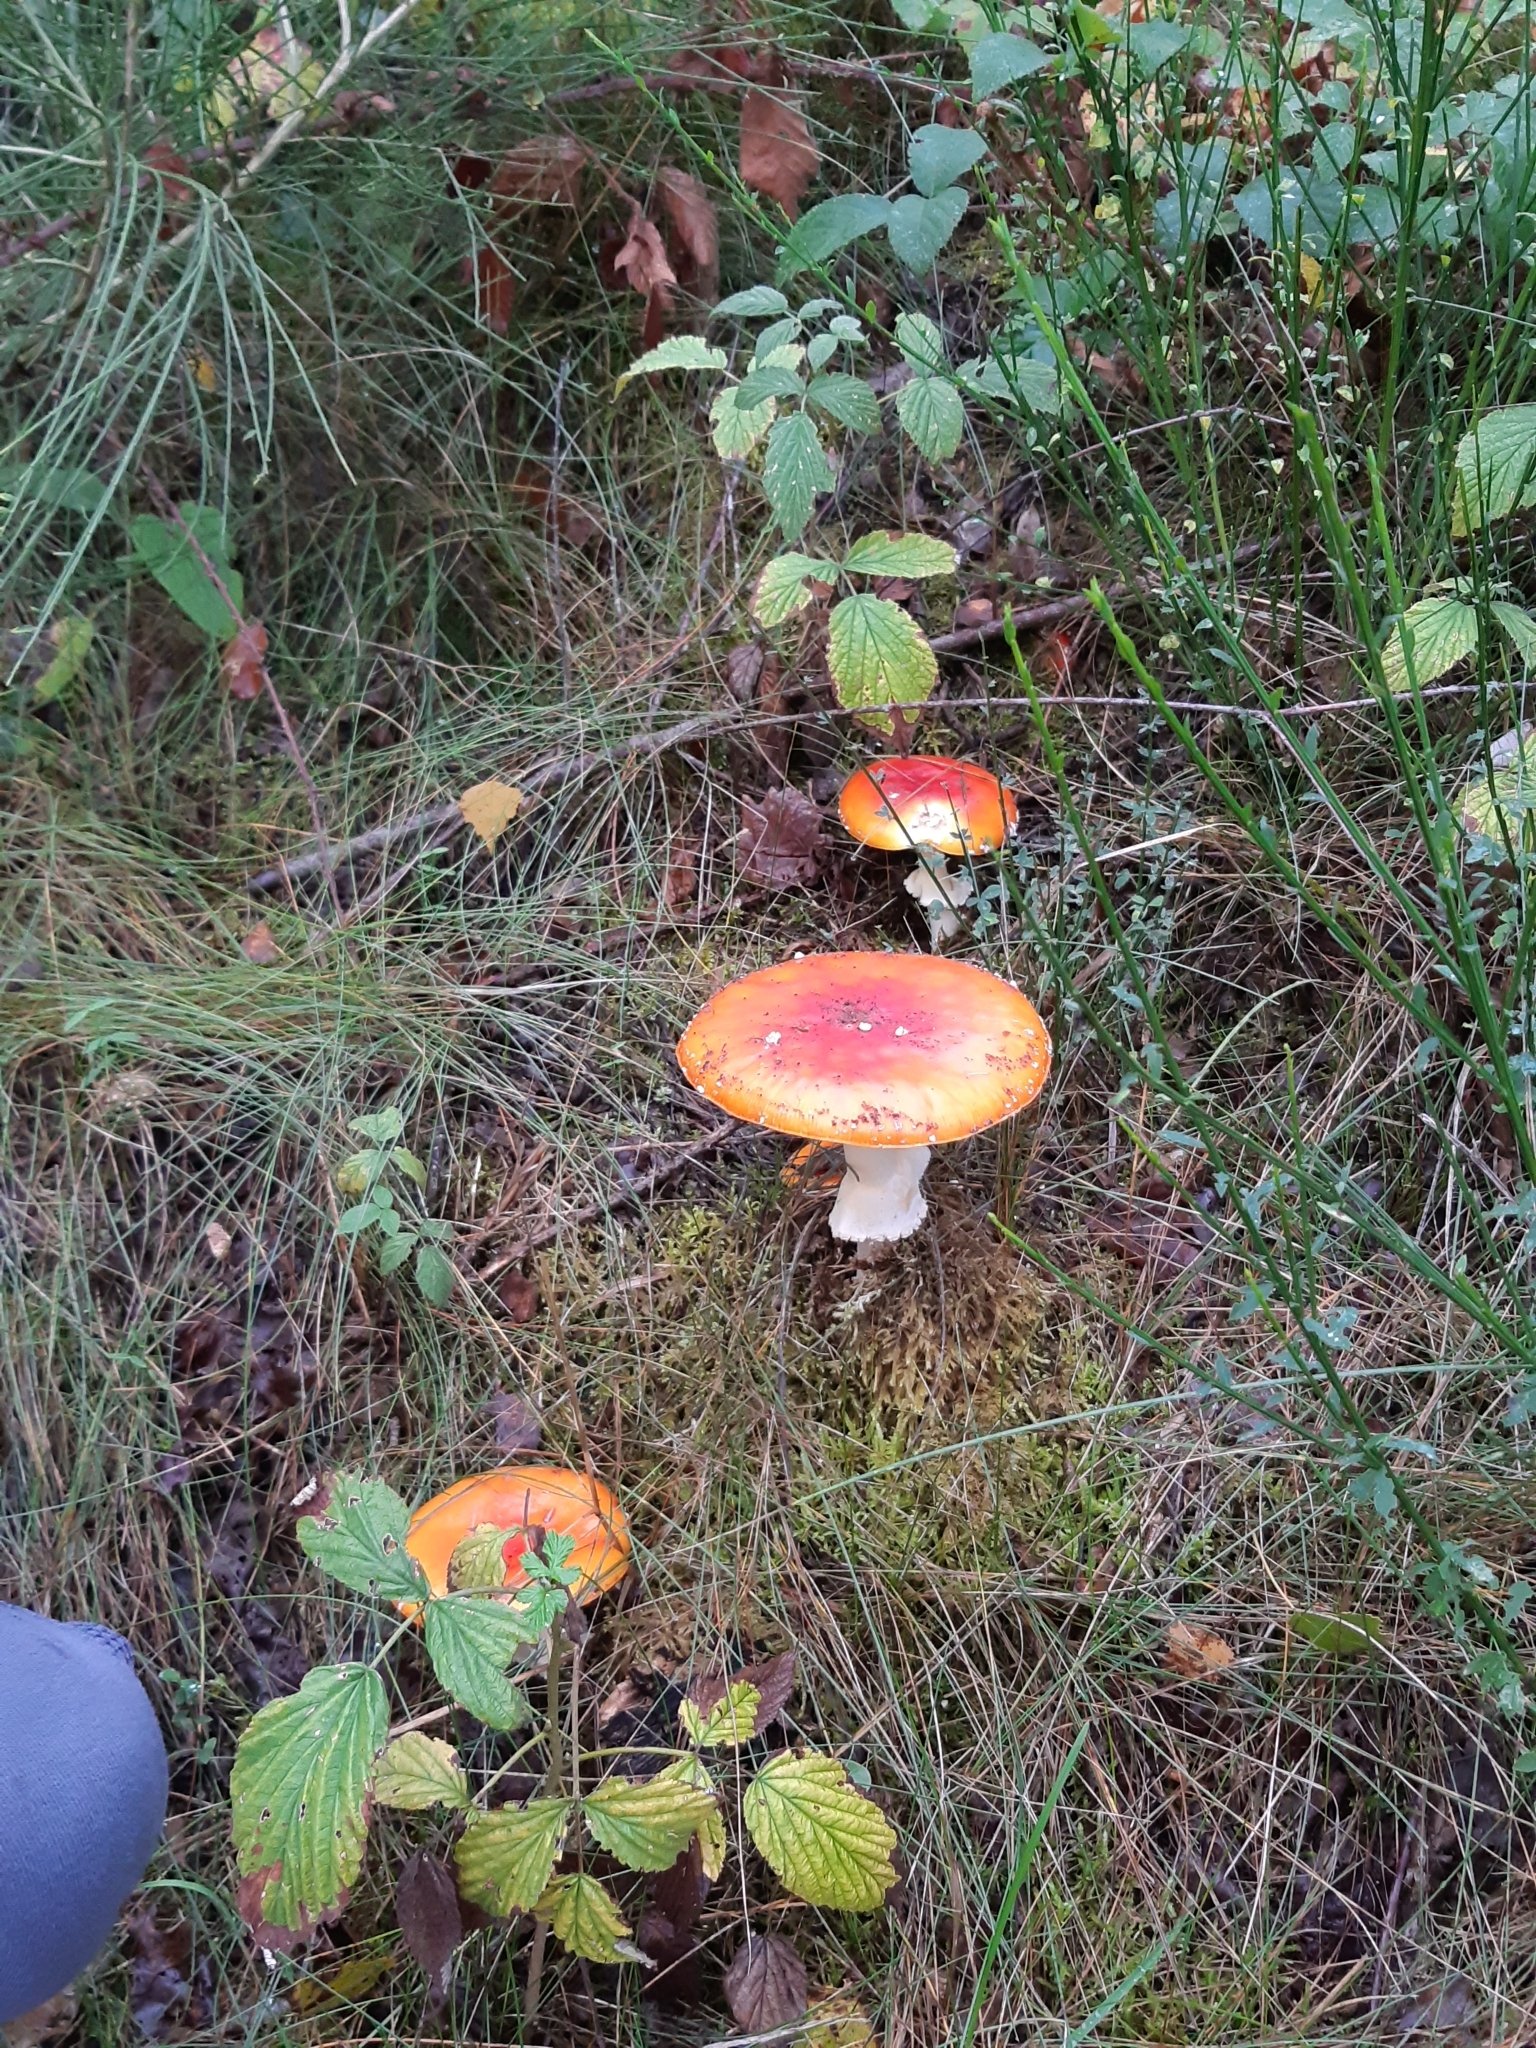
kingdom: Fungi
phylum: Basidiomycota
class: Agaricomycetes
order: Agaricales
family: Amanitaceae
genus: Amanita
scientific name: Amanita muscaria
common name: Fly agaric
